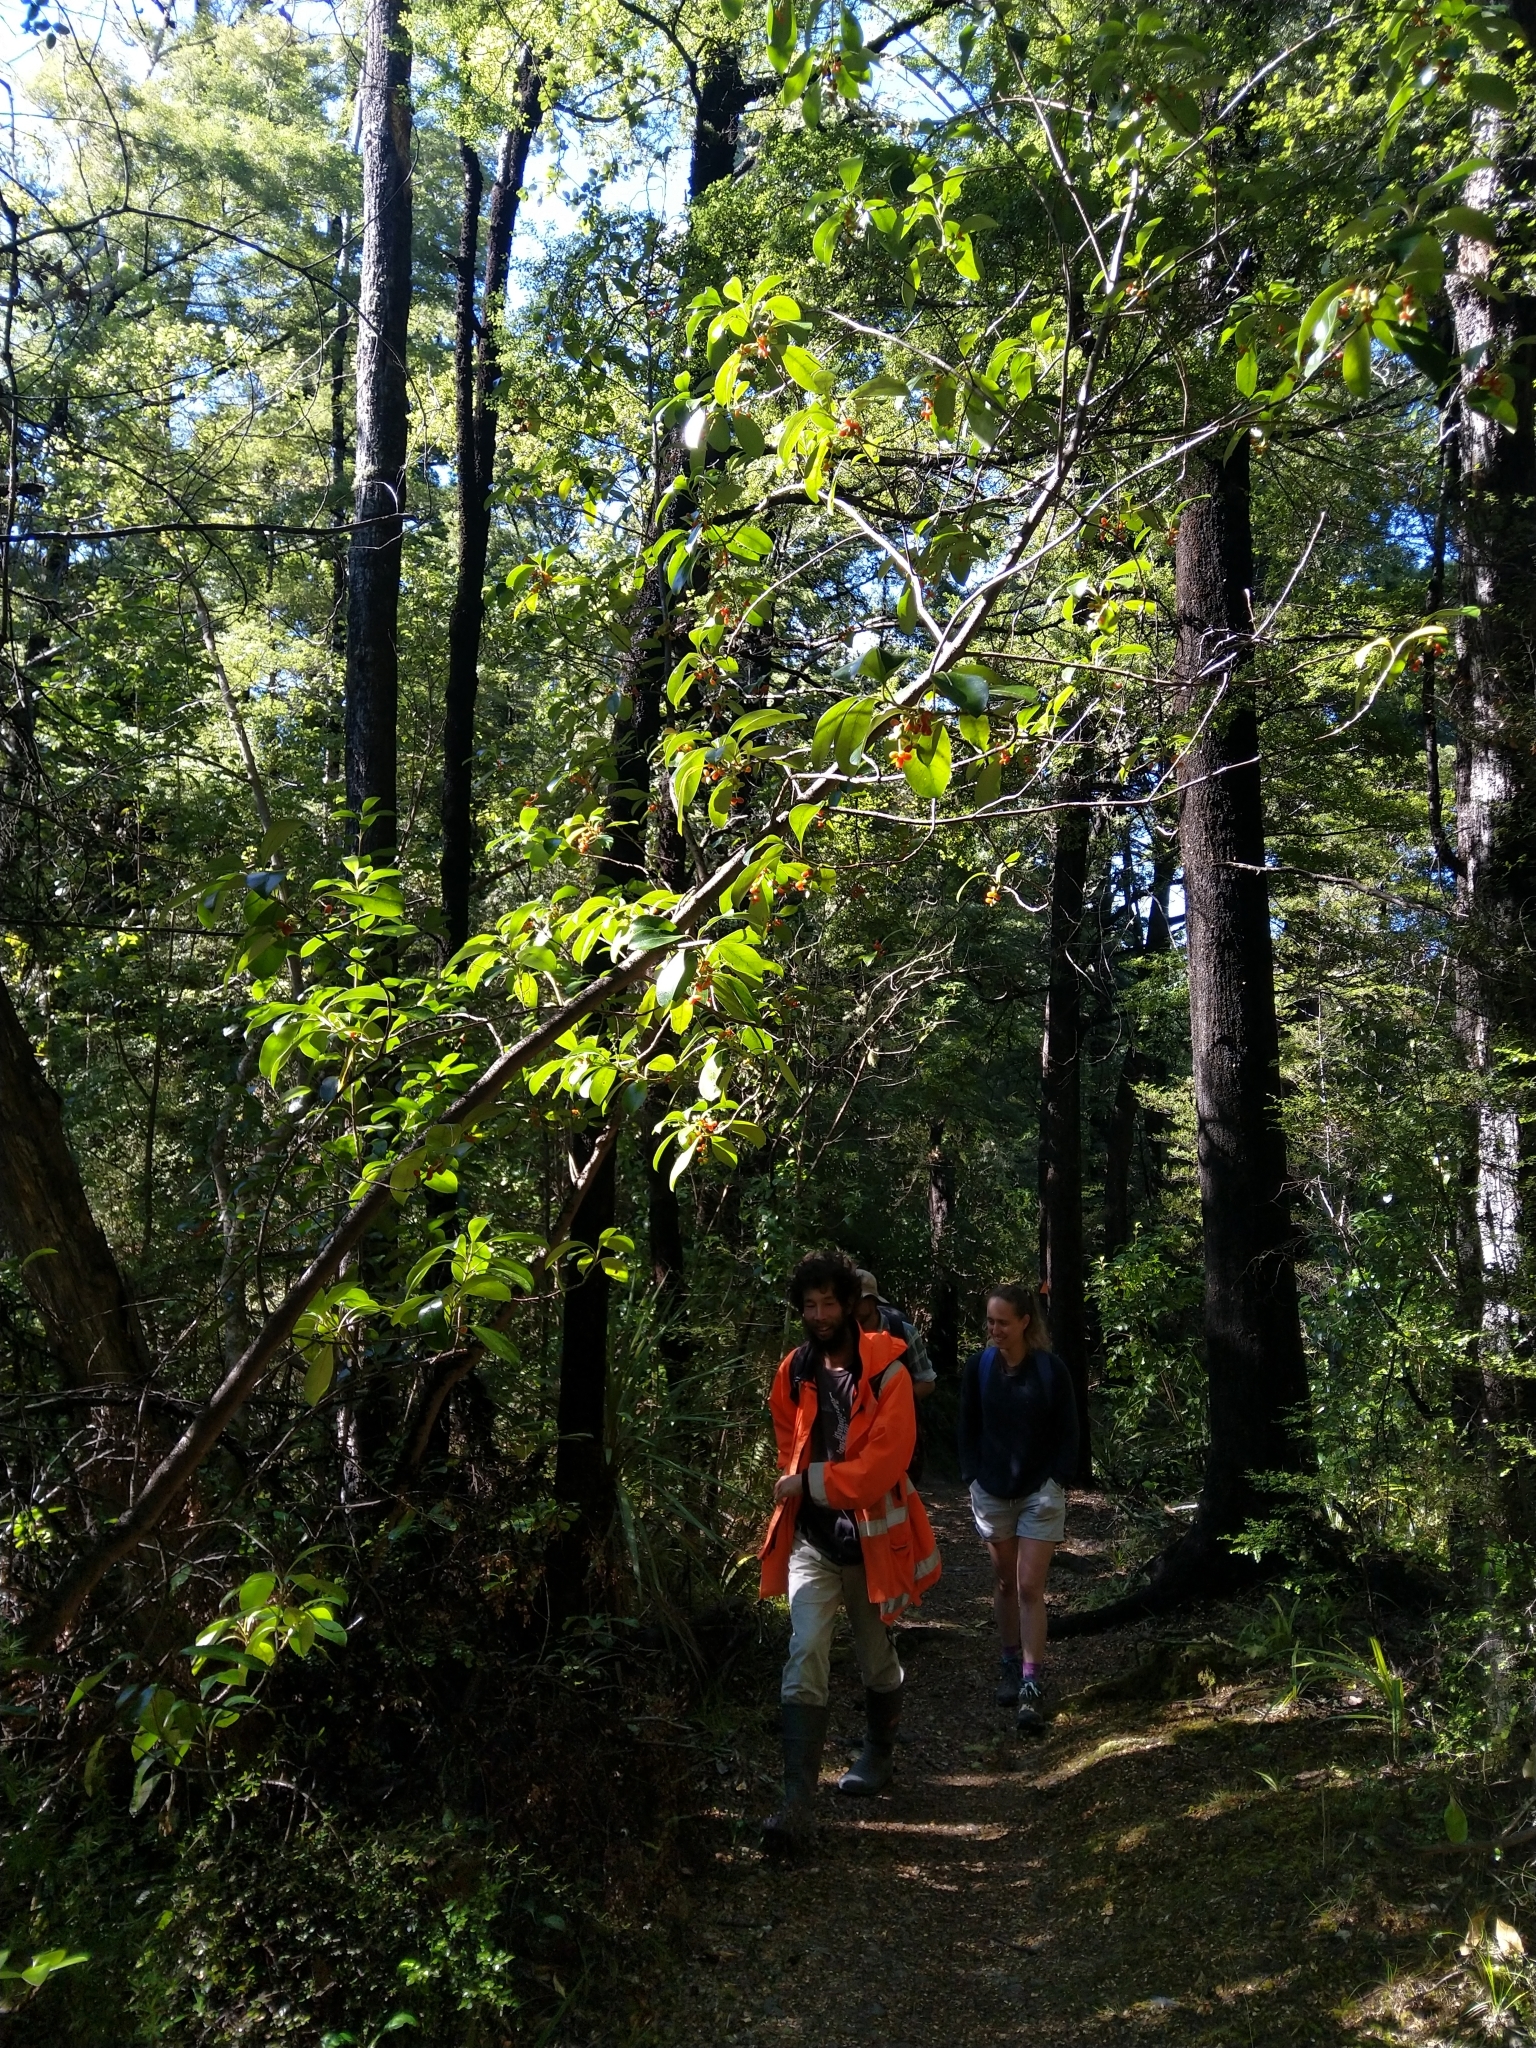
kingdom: Plantae
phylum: Tracheophyta
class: Magnoliopsida
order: Gentianales
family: Rubiaceae
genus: Coprosma
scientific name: Coprosma lucida
